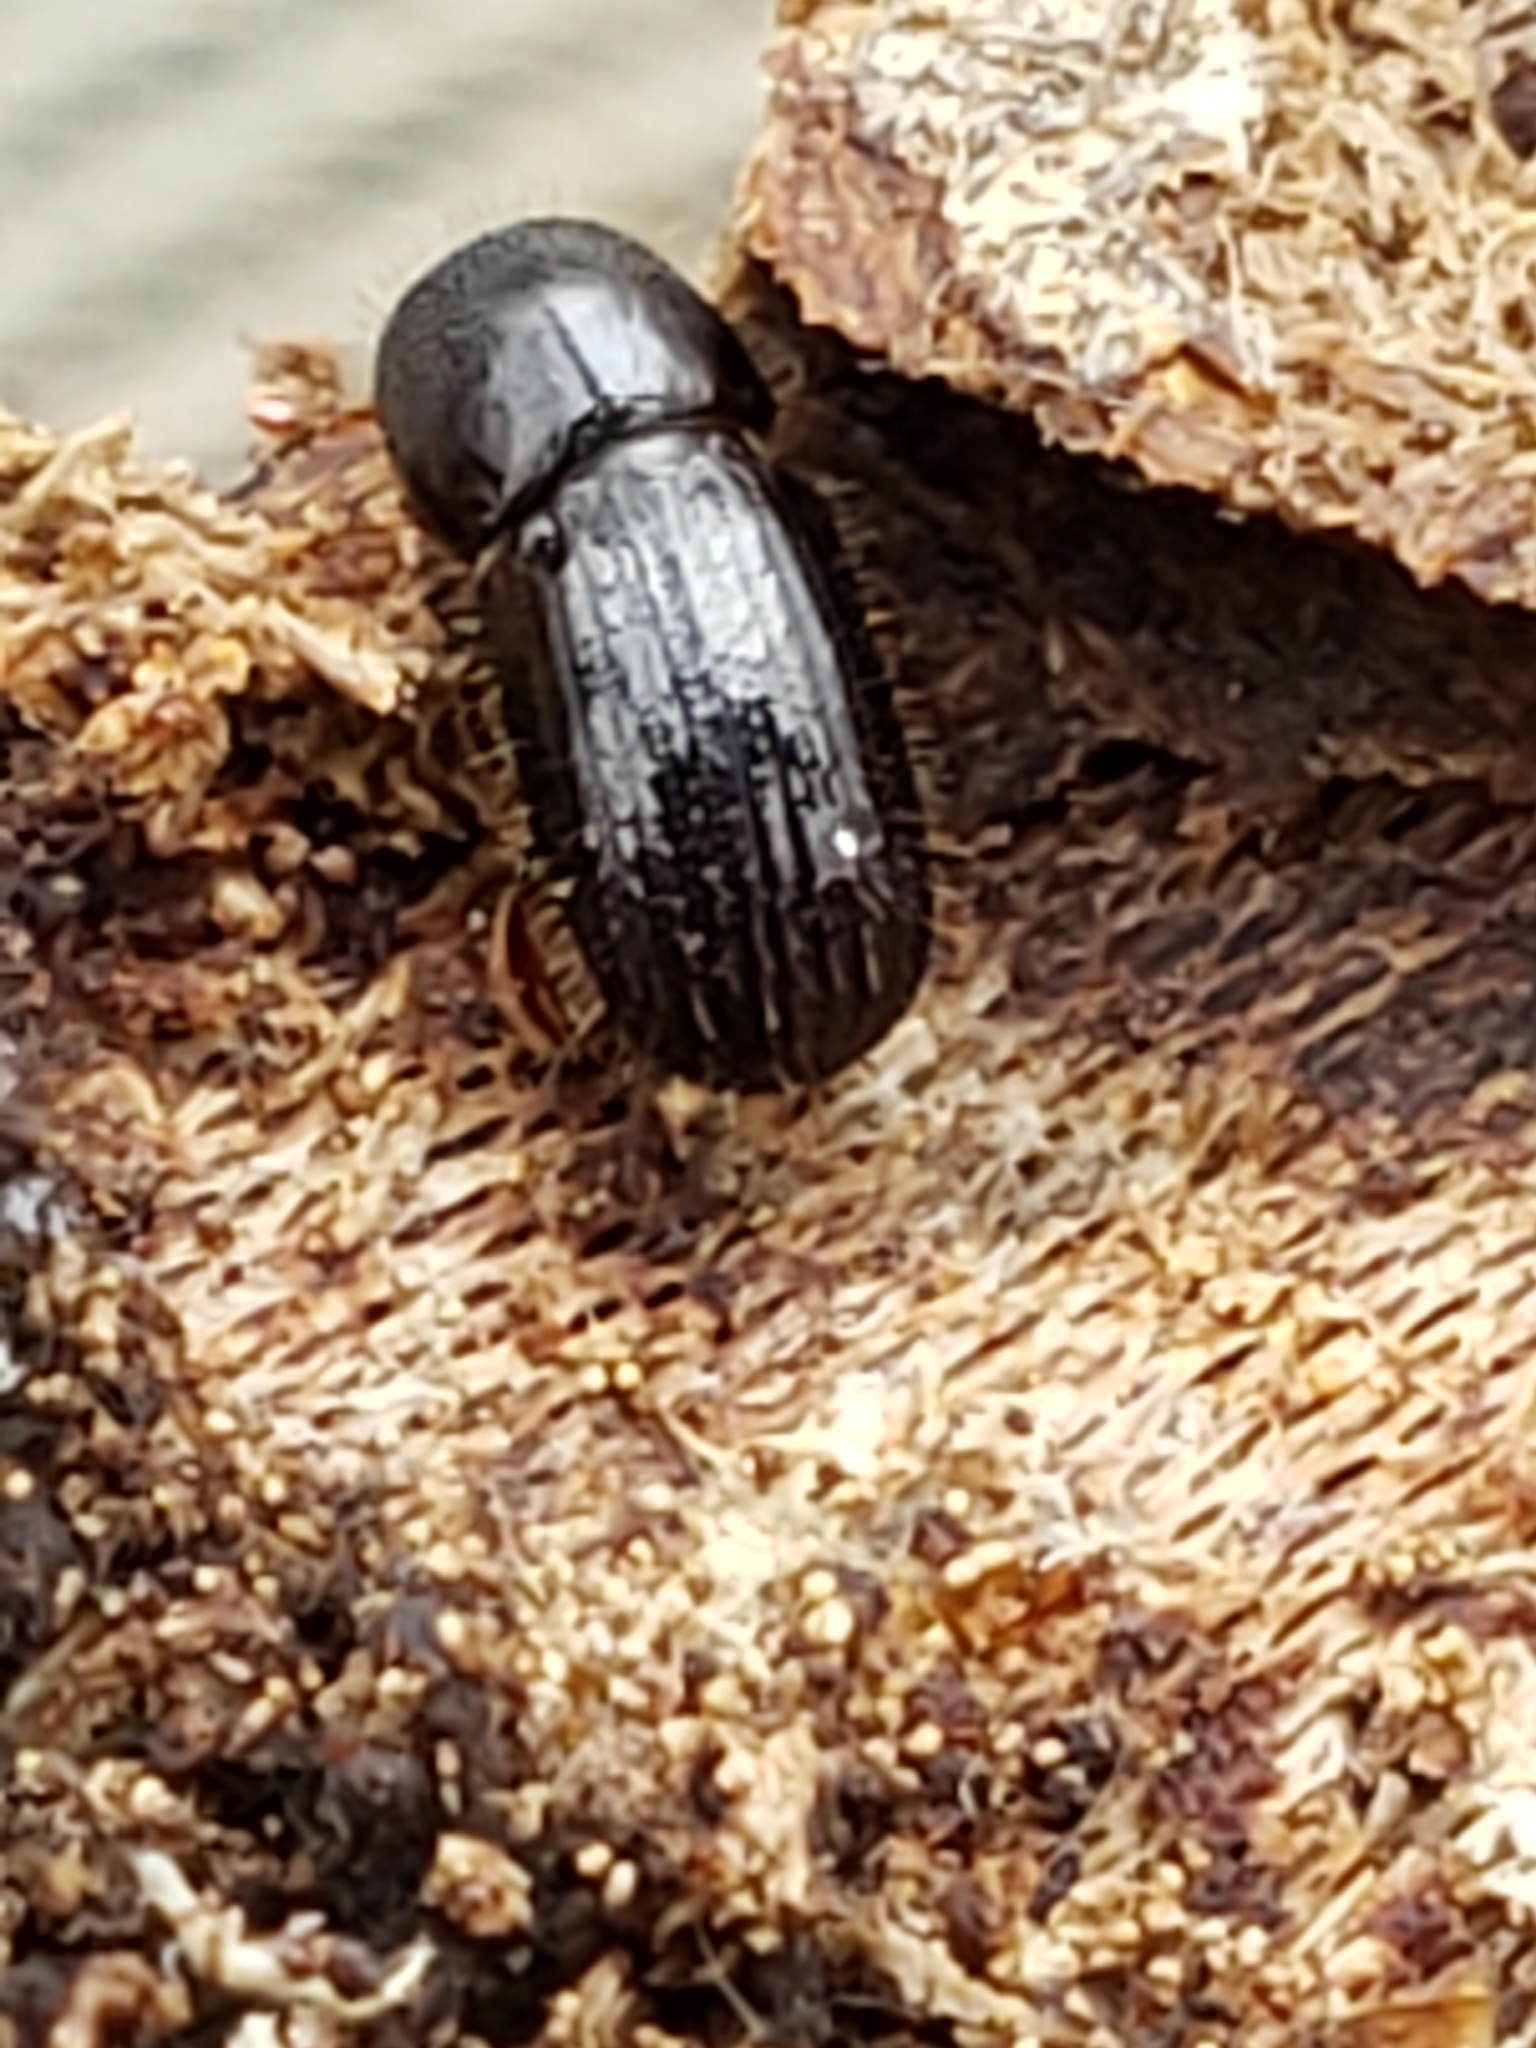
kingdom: Animalia
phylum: Arthropoda
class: Insecta
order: Coleoptera
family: Curculionidae
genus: Euwallacea
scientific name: Euwallacea validus
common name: Bark beetle
